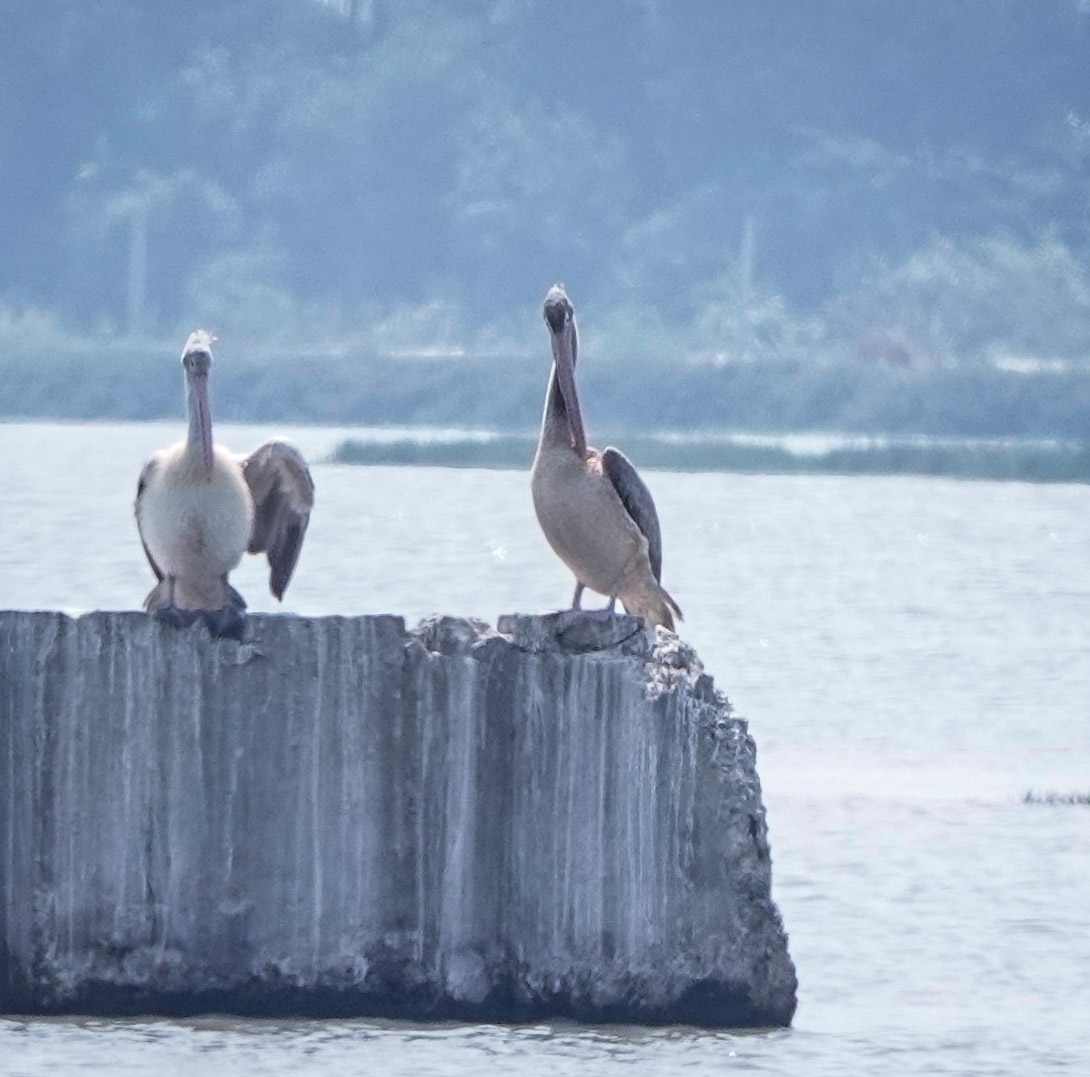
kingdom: Animalia
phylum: Chordata
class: Aves
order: Pelecaniformes
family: Pelecanidae
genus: Pelecanus
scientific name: Pelecanus philippensis
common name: Spot-billed pelican
